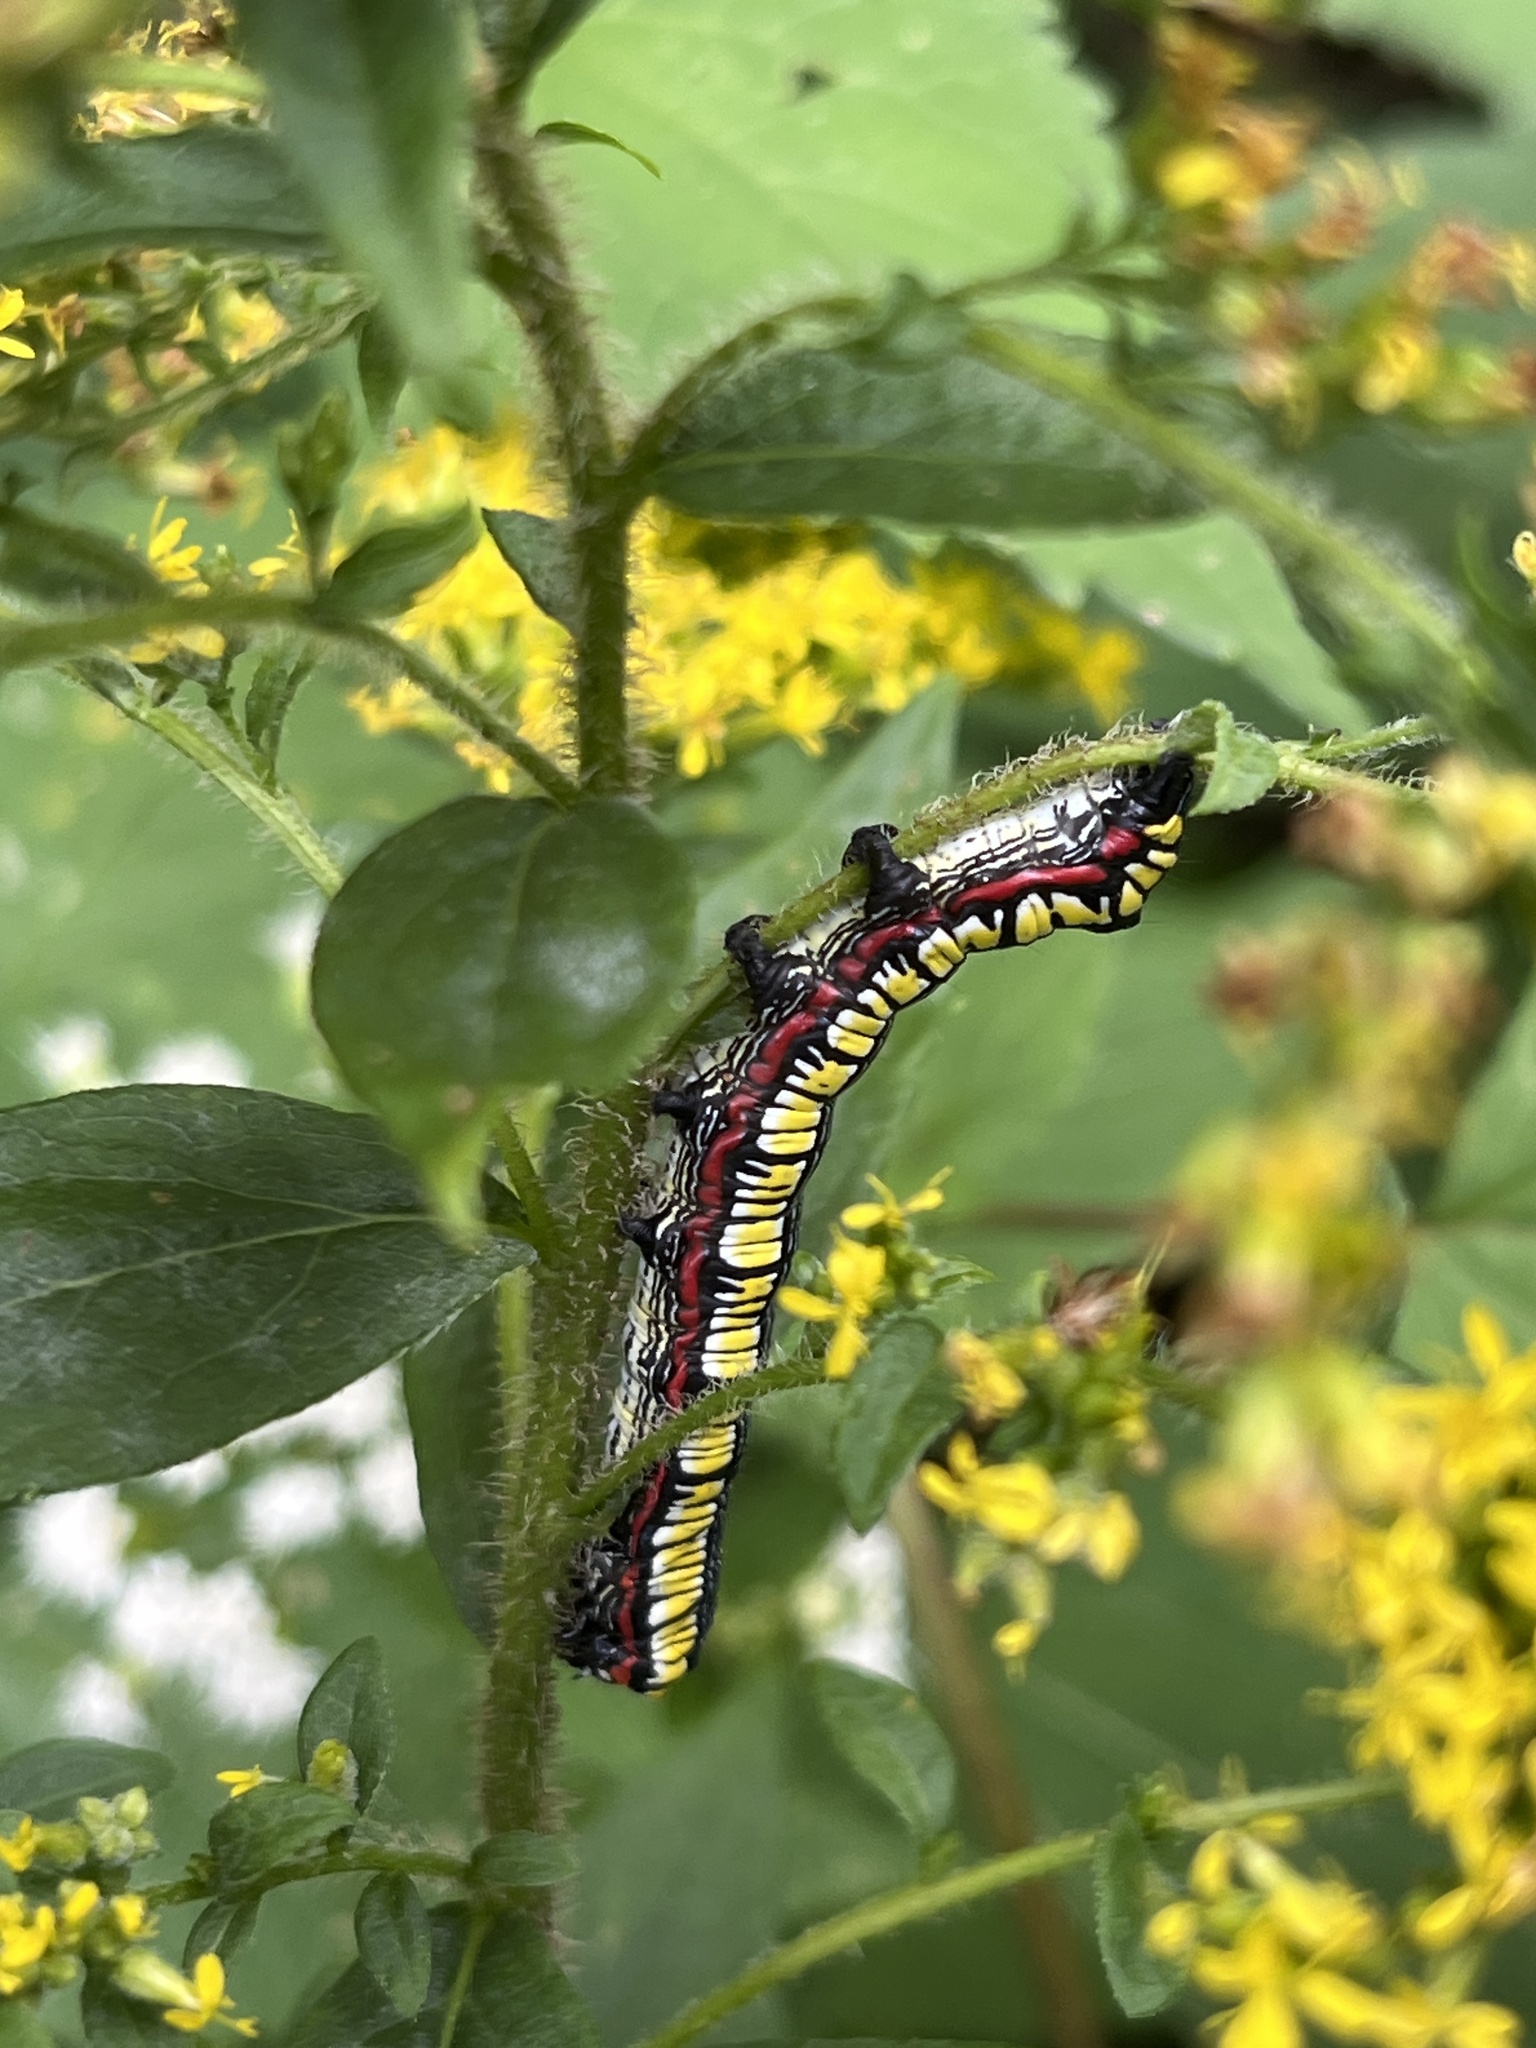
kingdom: Animalia
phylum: Arthropoda
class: Insecta
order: Lepidoptera
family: Noctuidae
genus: Cucullia
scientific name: Cucullia convexipennis
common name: Brown-hooded owlet
